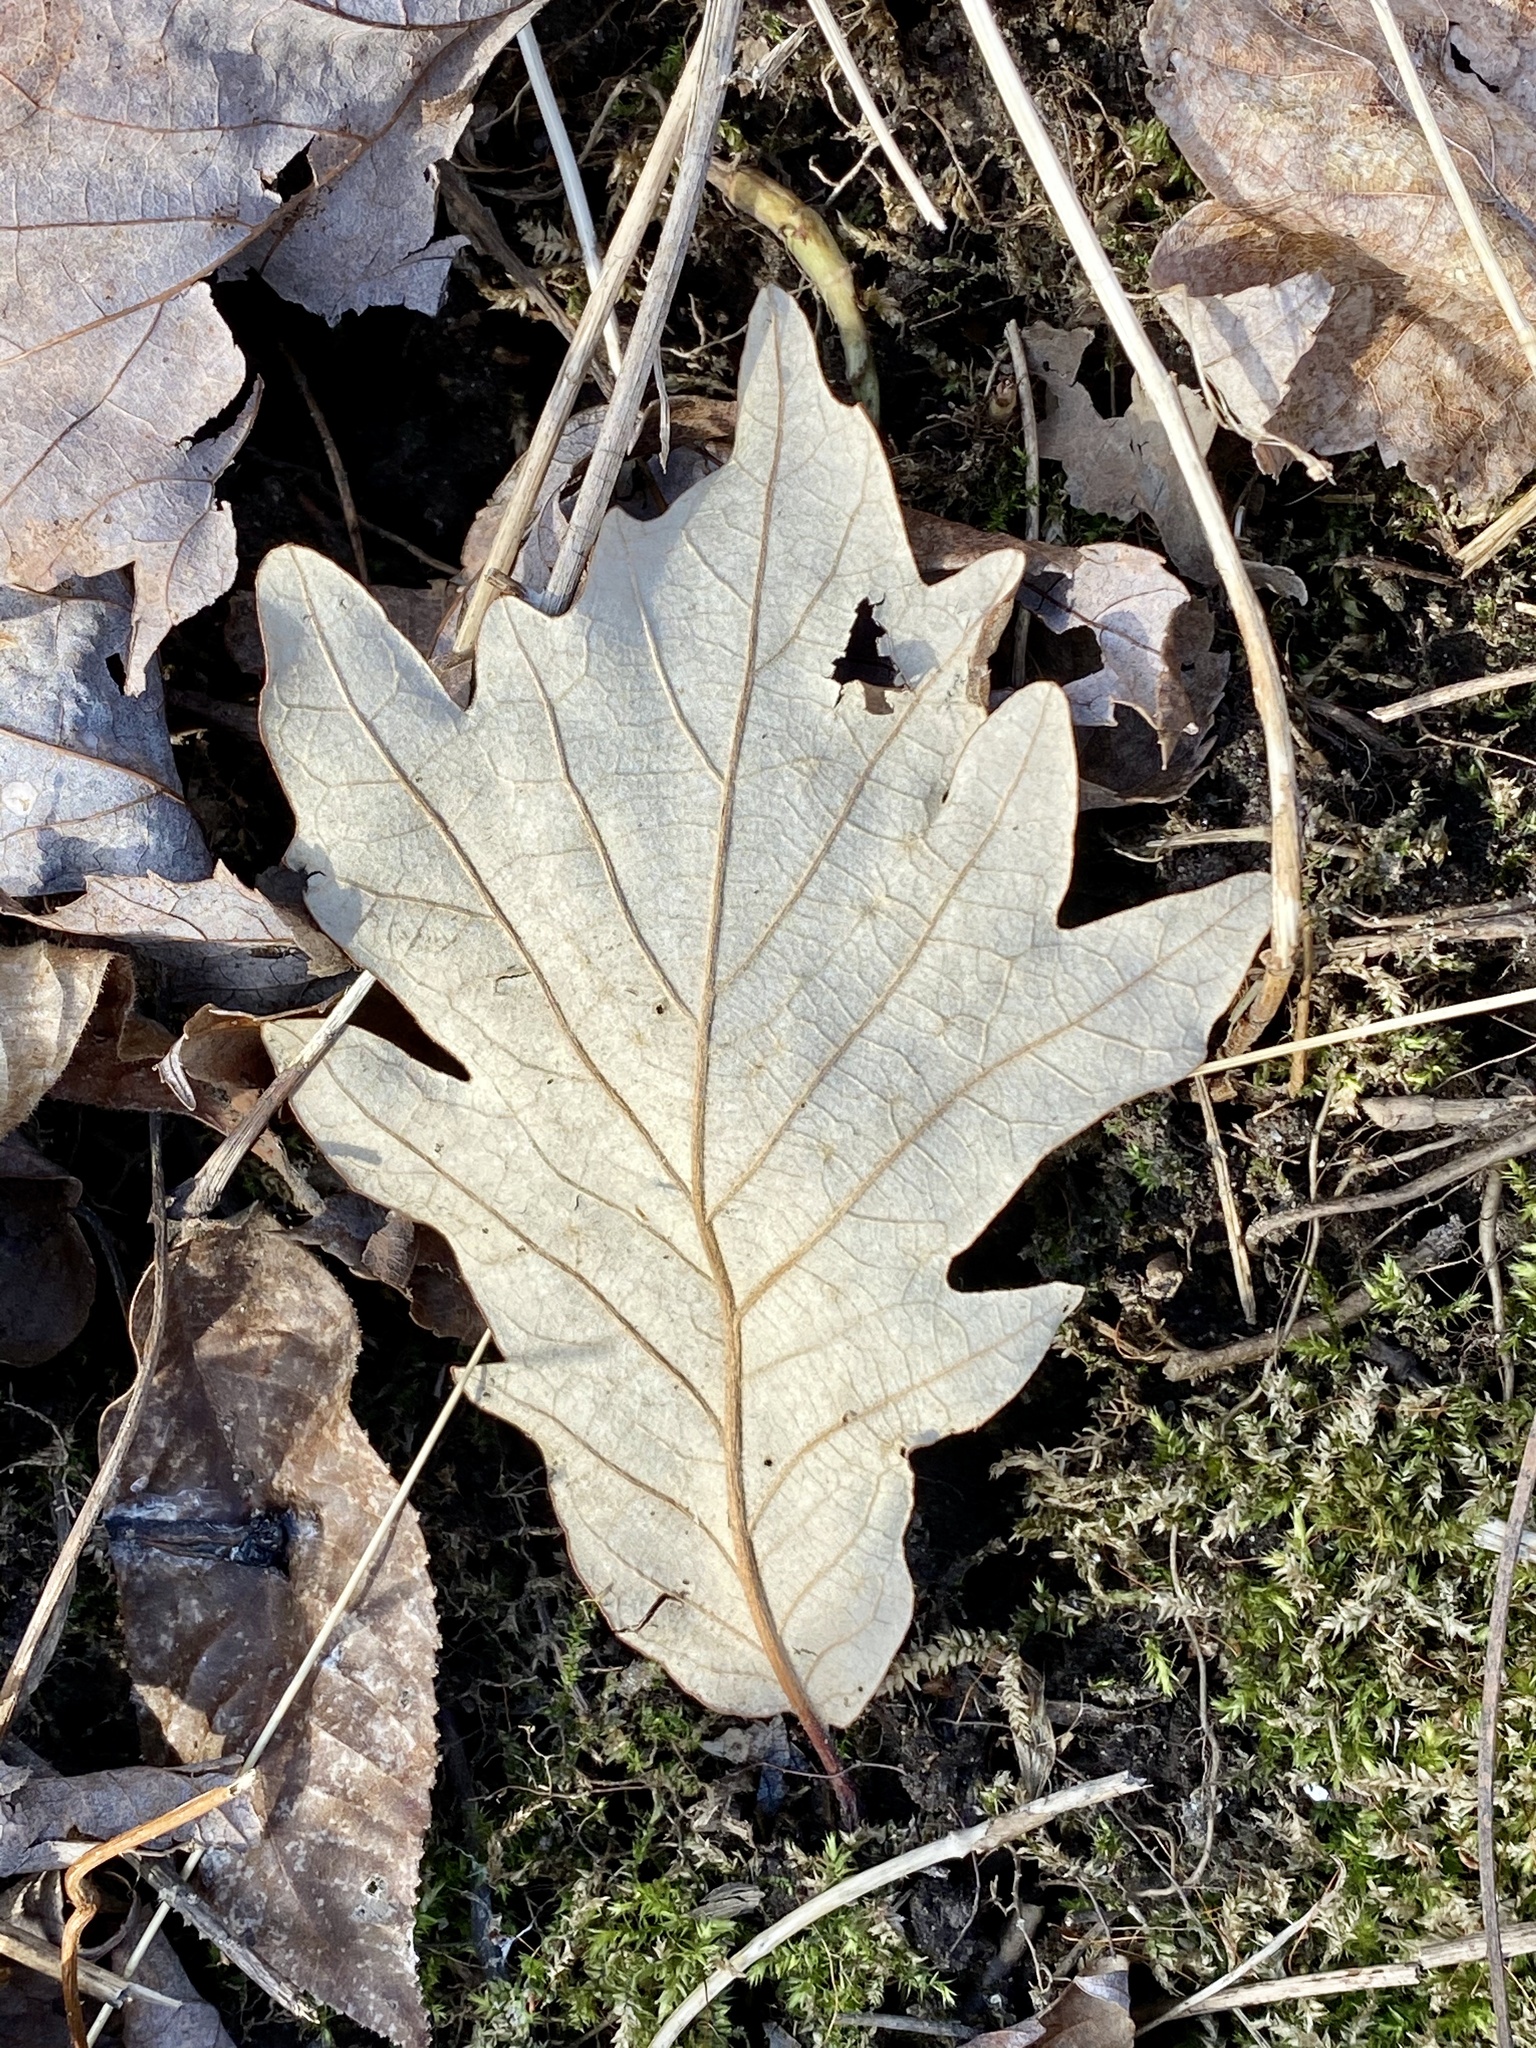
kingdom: Plantae
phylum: Tracheophyta
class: Magnoliopsida
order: Fagales
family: Fagaceae
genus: Quercus
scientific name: Quercus bicolor
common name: Swamp white oak
